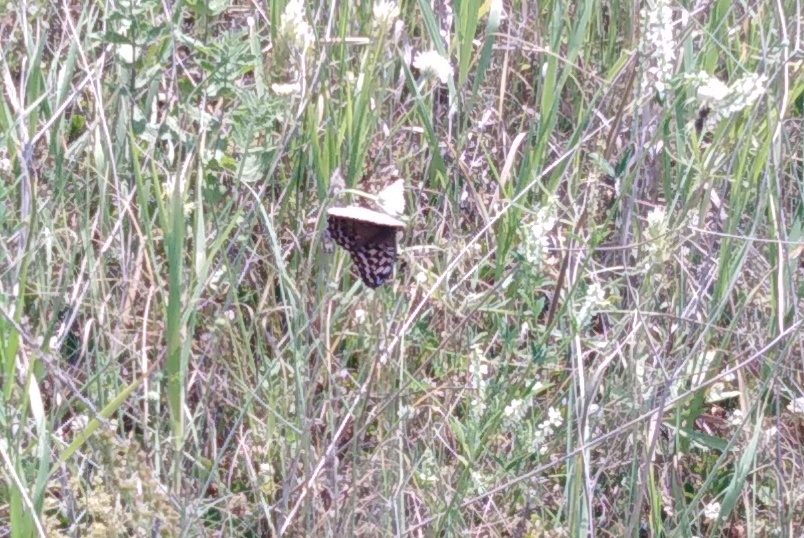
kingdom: Animalia
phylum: Arthropoda
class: Insecta
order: Lepidoptera
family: Nymphalidae
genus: Argynnis
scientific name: Argynnis paphia
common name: Silver-washed fritillary
